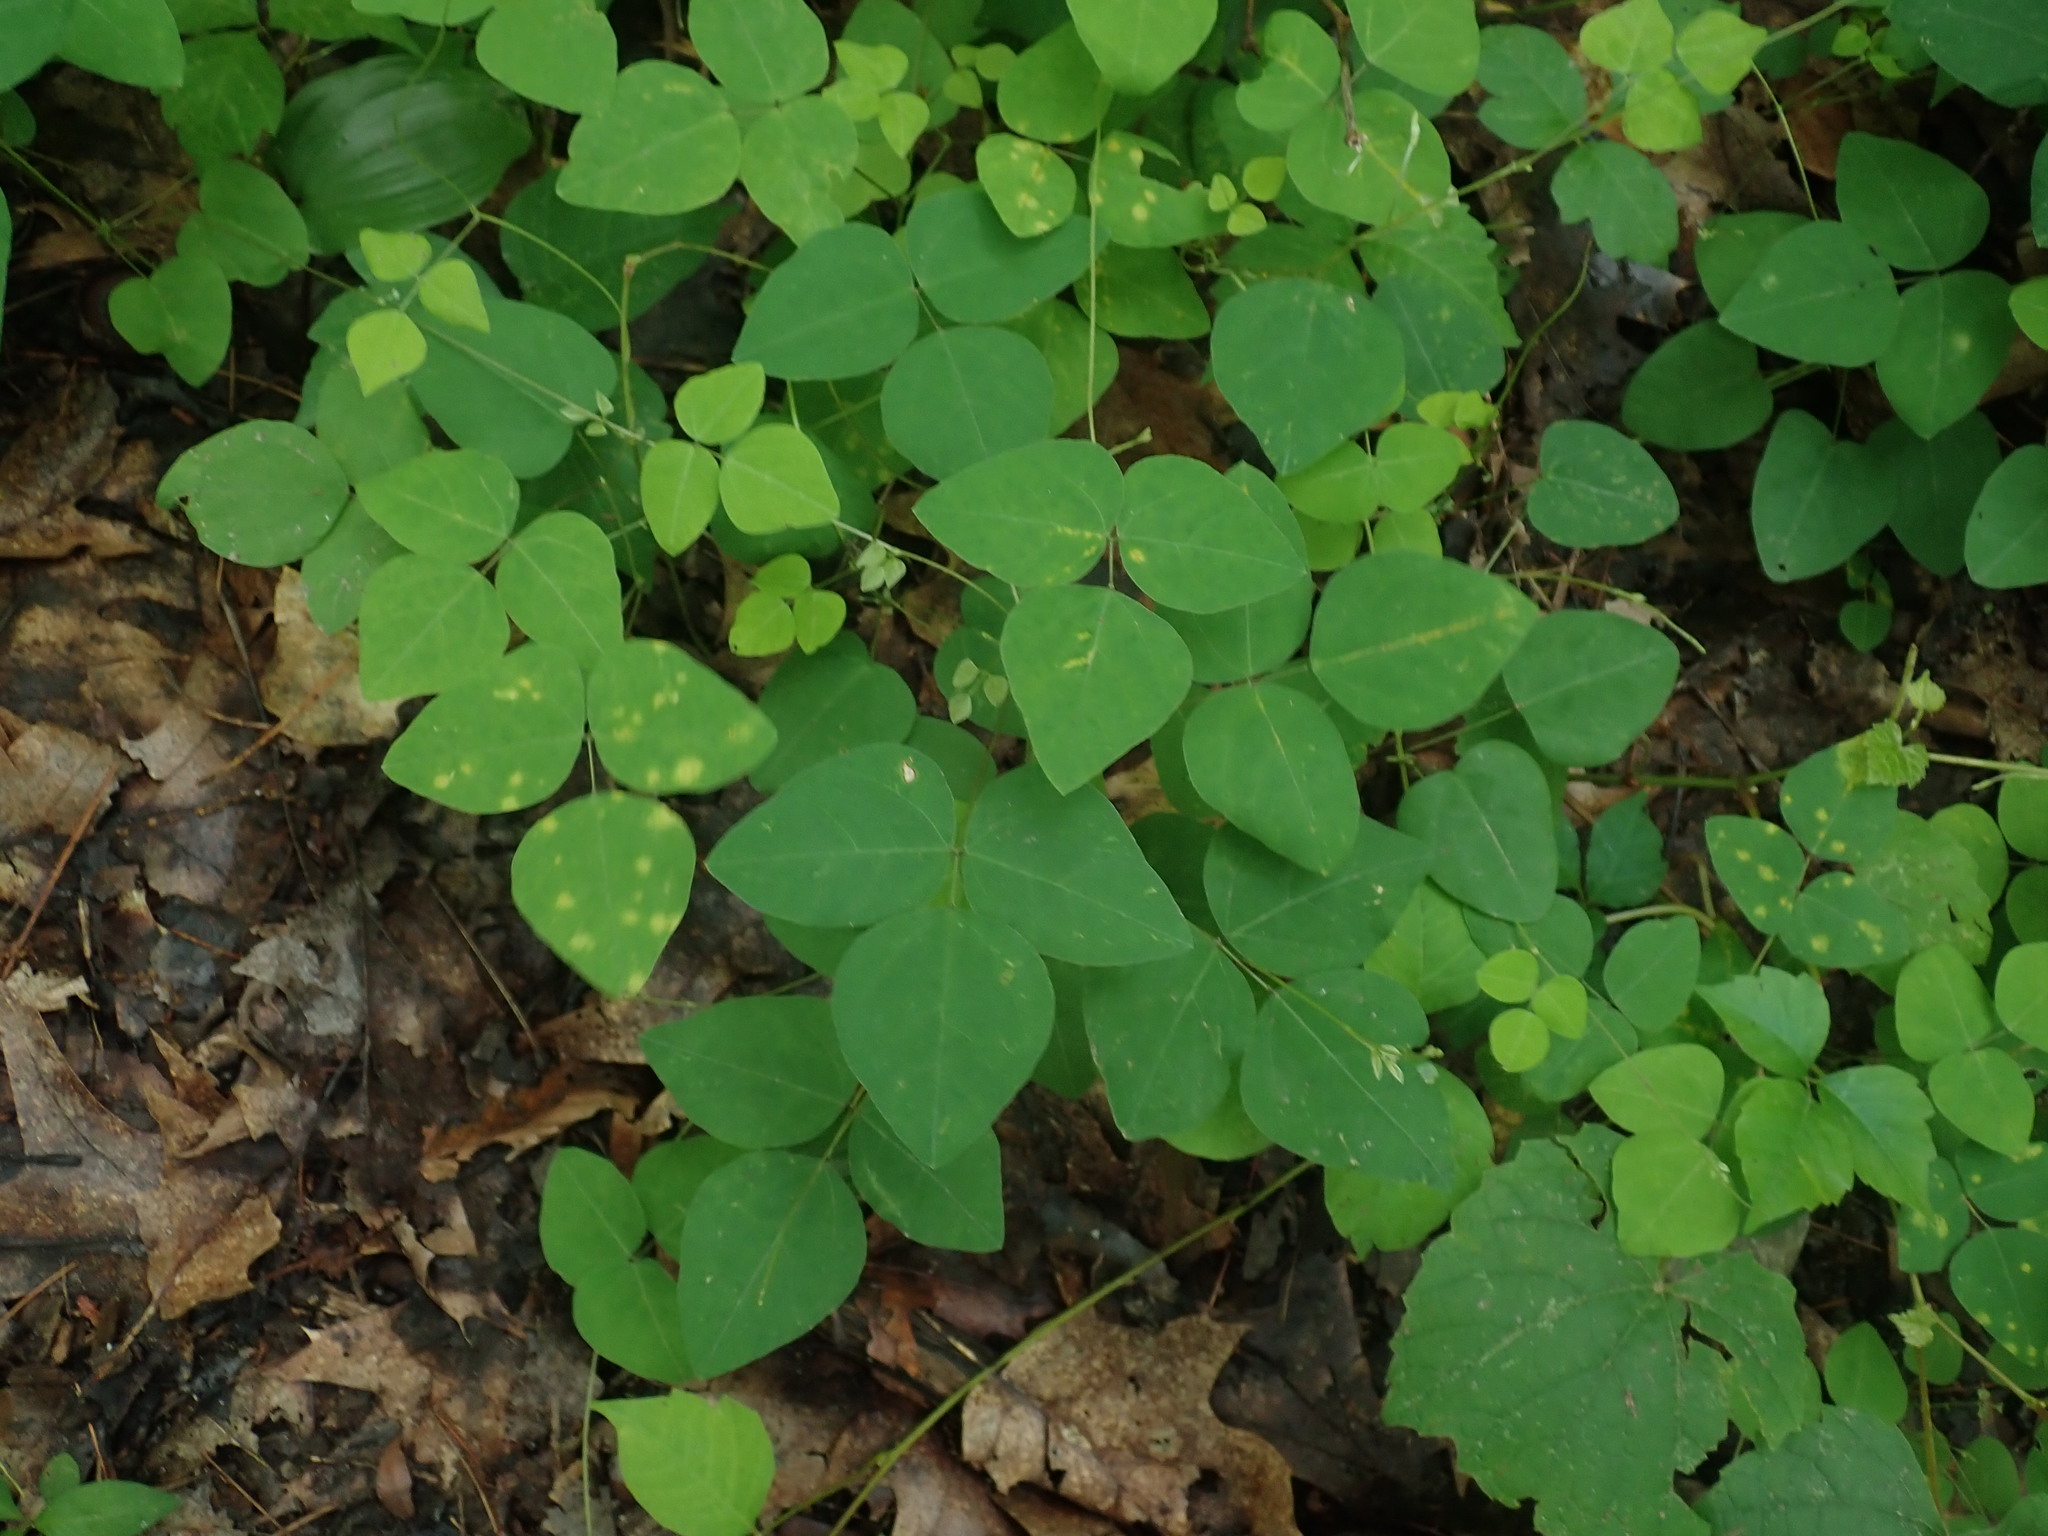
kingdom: Plantae
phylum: Tracheophyta
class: Magnoliopsida
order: Fabales
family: Fabaceae
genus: Amphicarpaea
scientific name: Amphicarpaea bracteata
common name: American hog peanut
